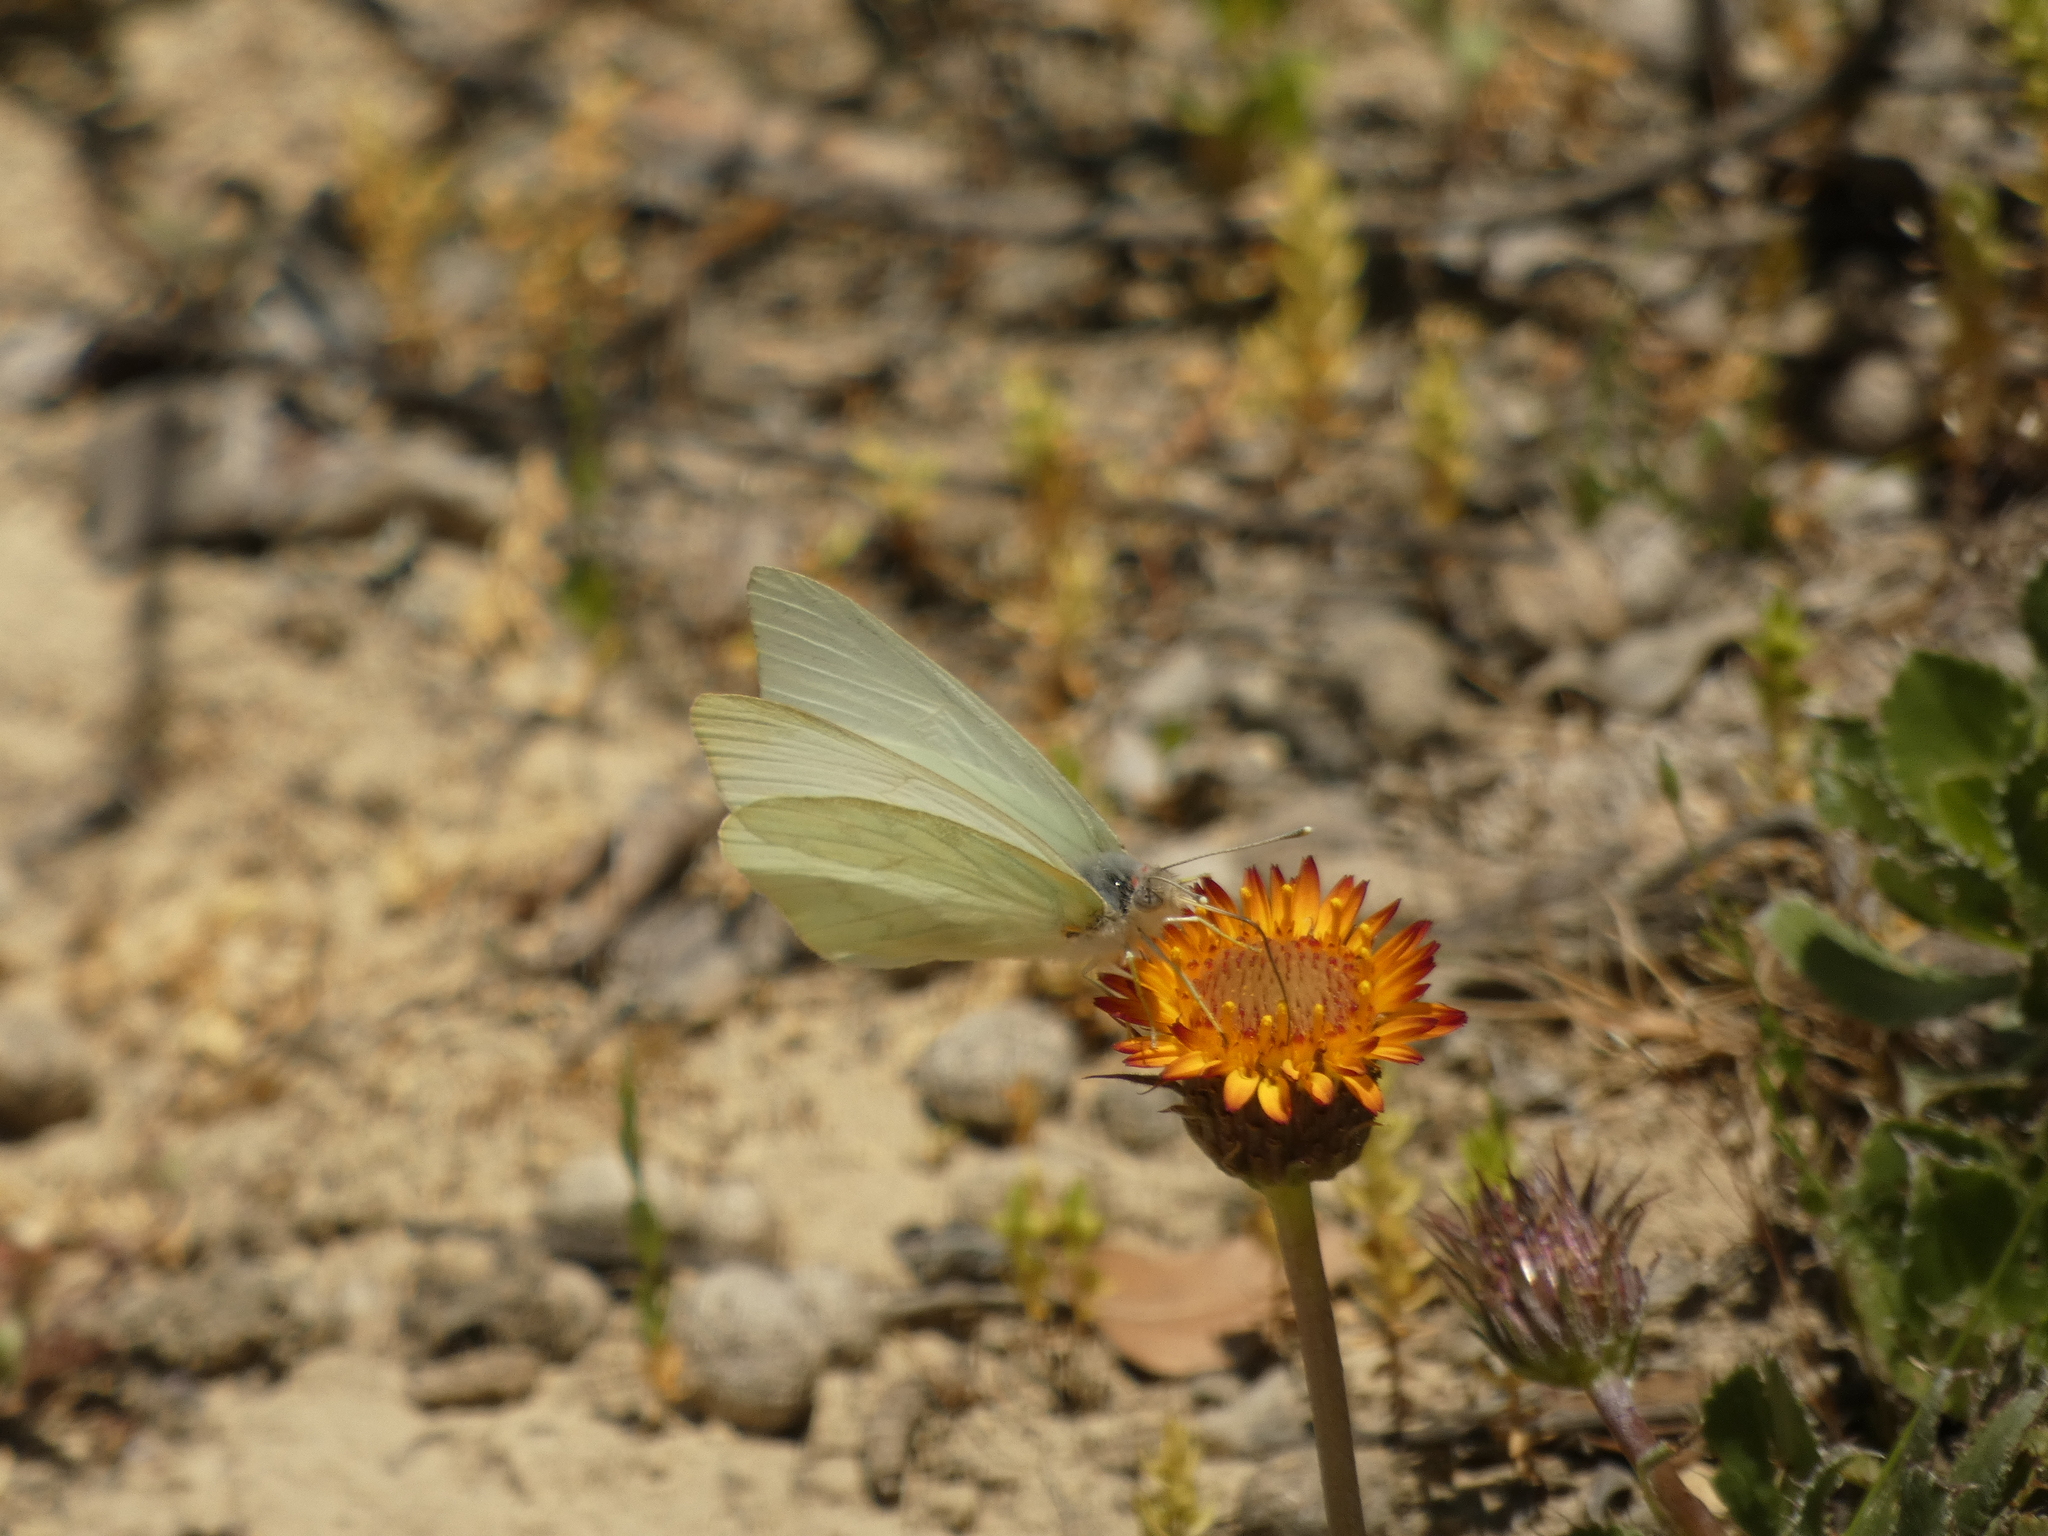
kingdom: Animalia
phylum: Arthropoda
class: Insecta
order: Lepidoptera
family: Pieridae
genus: Mathania
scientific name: Mathania leucothea
